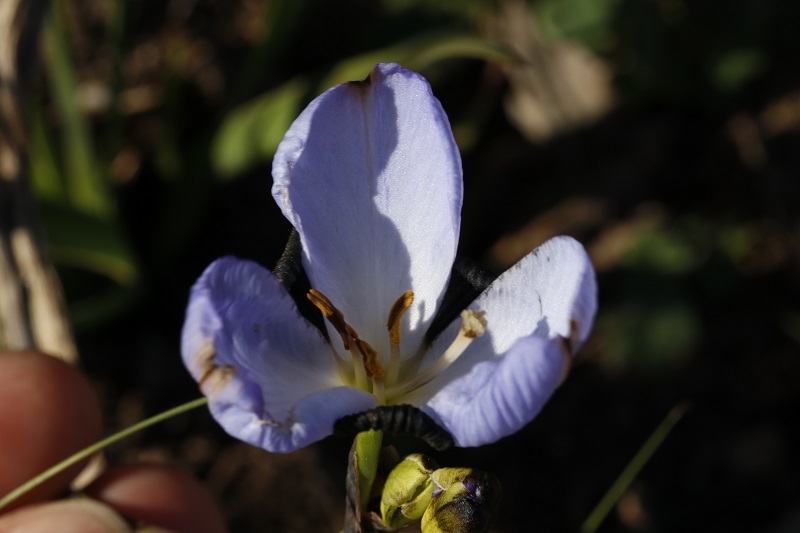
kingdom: Plantae
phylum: Tracheophyta
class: Liliopsida
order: Asparagales
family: Iridaceae
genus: Aristea
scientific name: Aristea lugens
